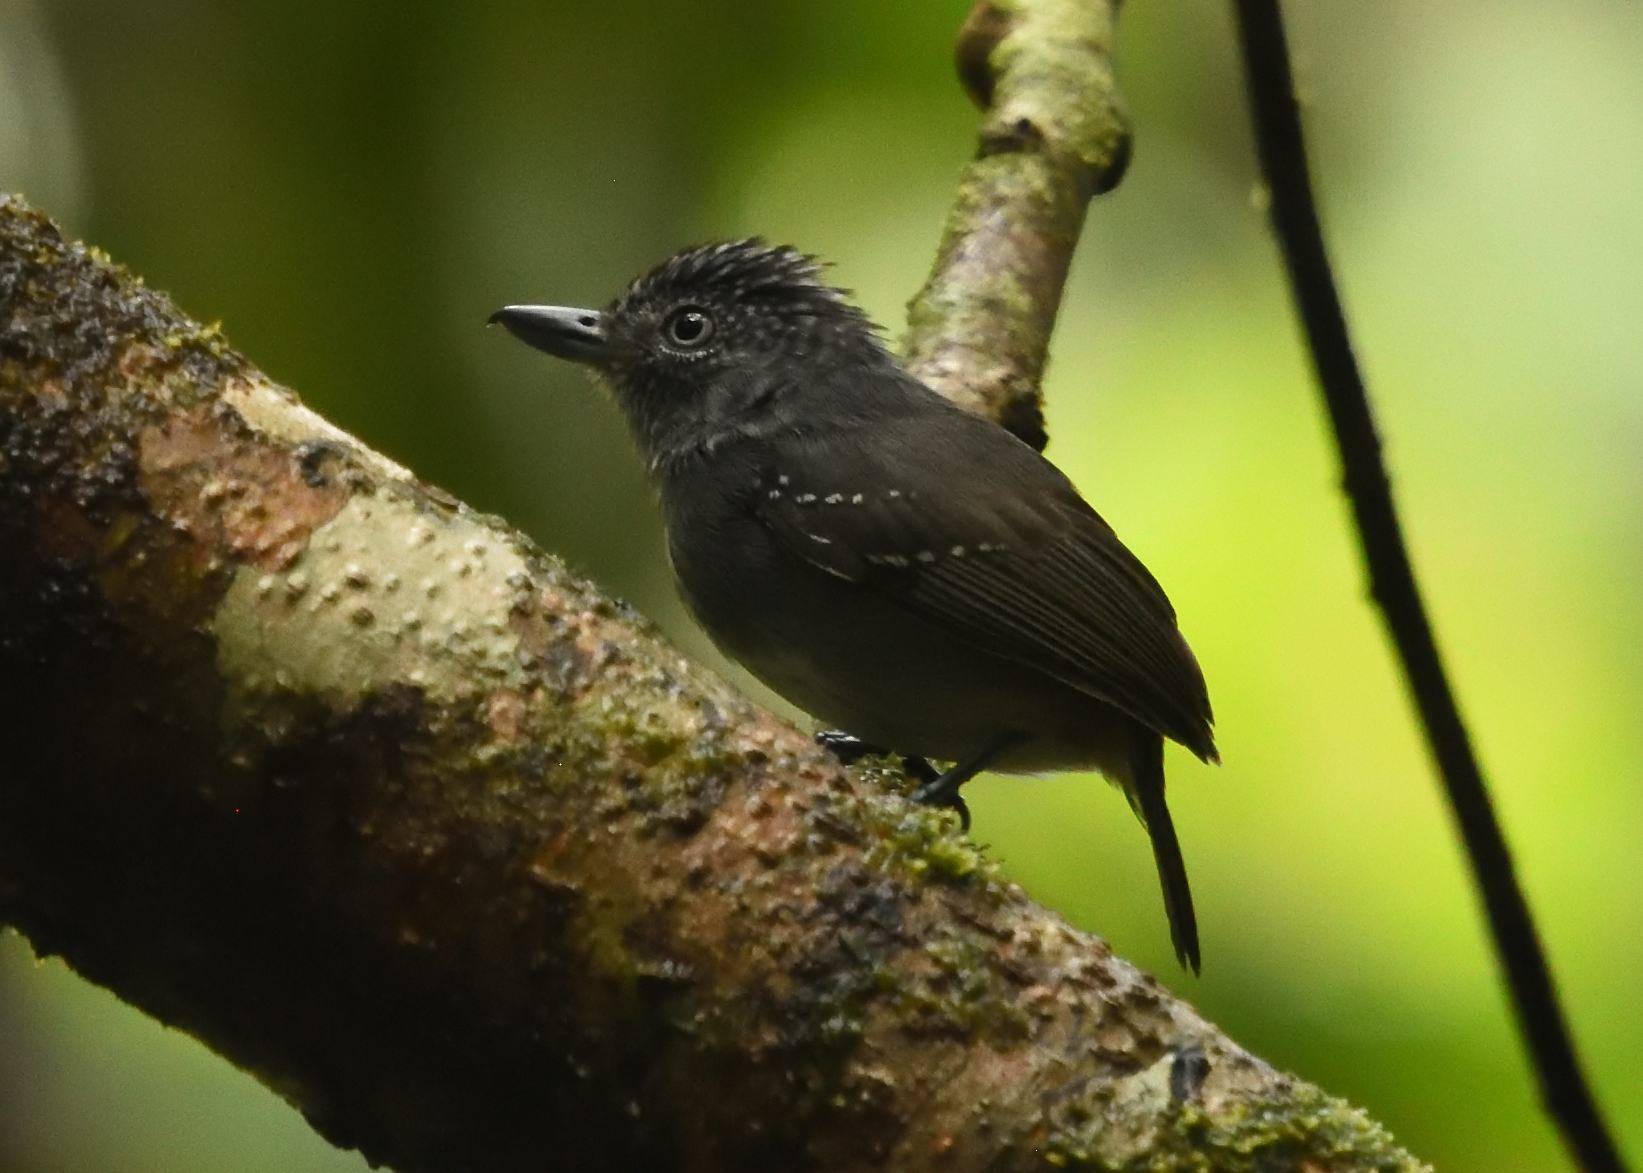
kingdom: Animalia
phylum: Chordata
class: Aves
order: Passeriformes
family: Thamnophilidae
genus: Dysithamnus
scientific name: Dysithamnus puncticeps
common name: Spot-crowned antvireo
